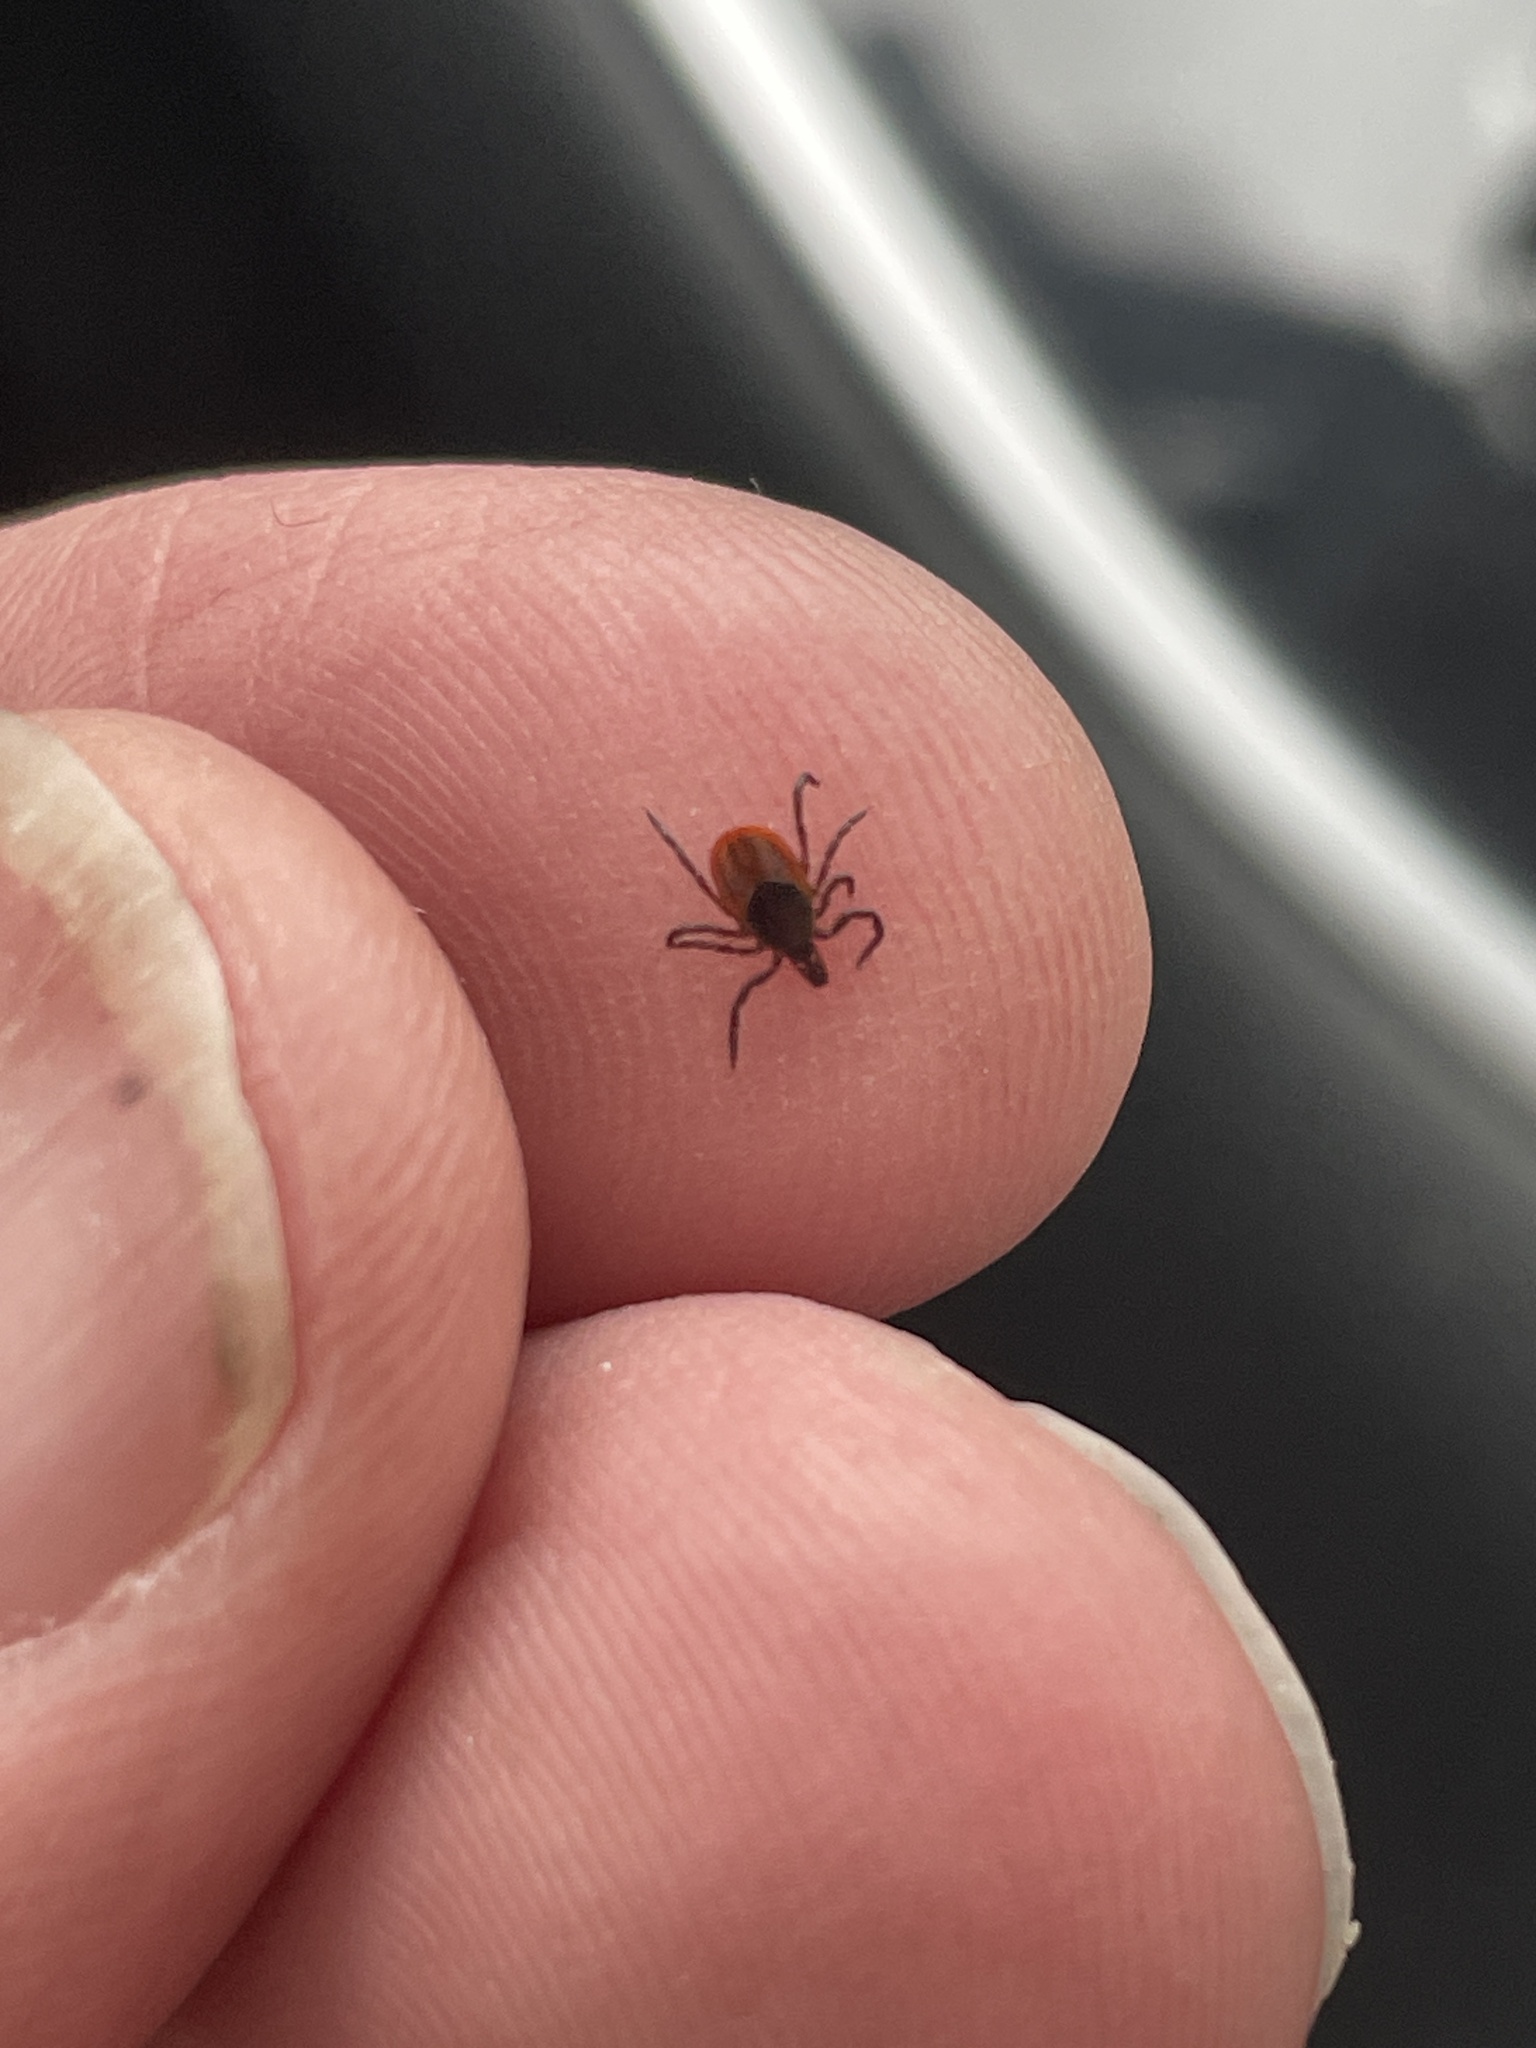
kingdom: Animalia
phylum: Arthropoda
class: Arachnida
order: Ixodida
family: Ixodidae
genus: Ixodes
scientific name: Ixodes scapularis
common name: Black legged tick
